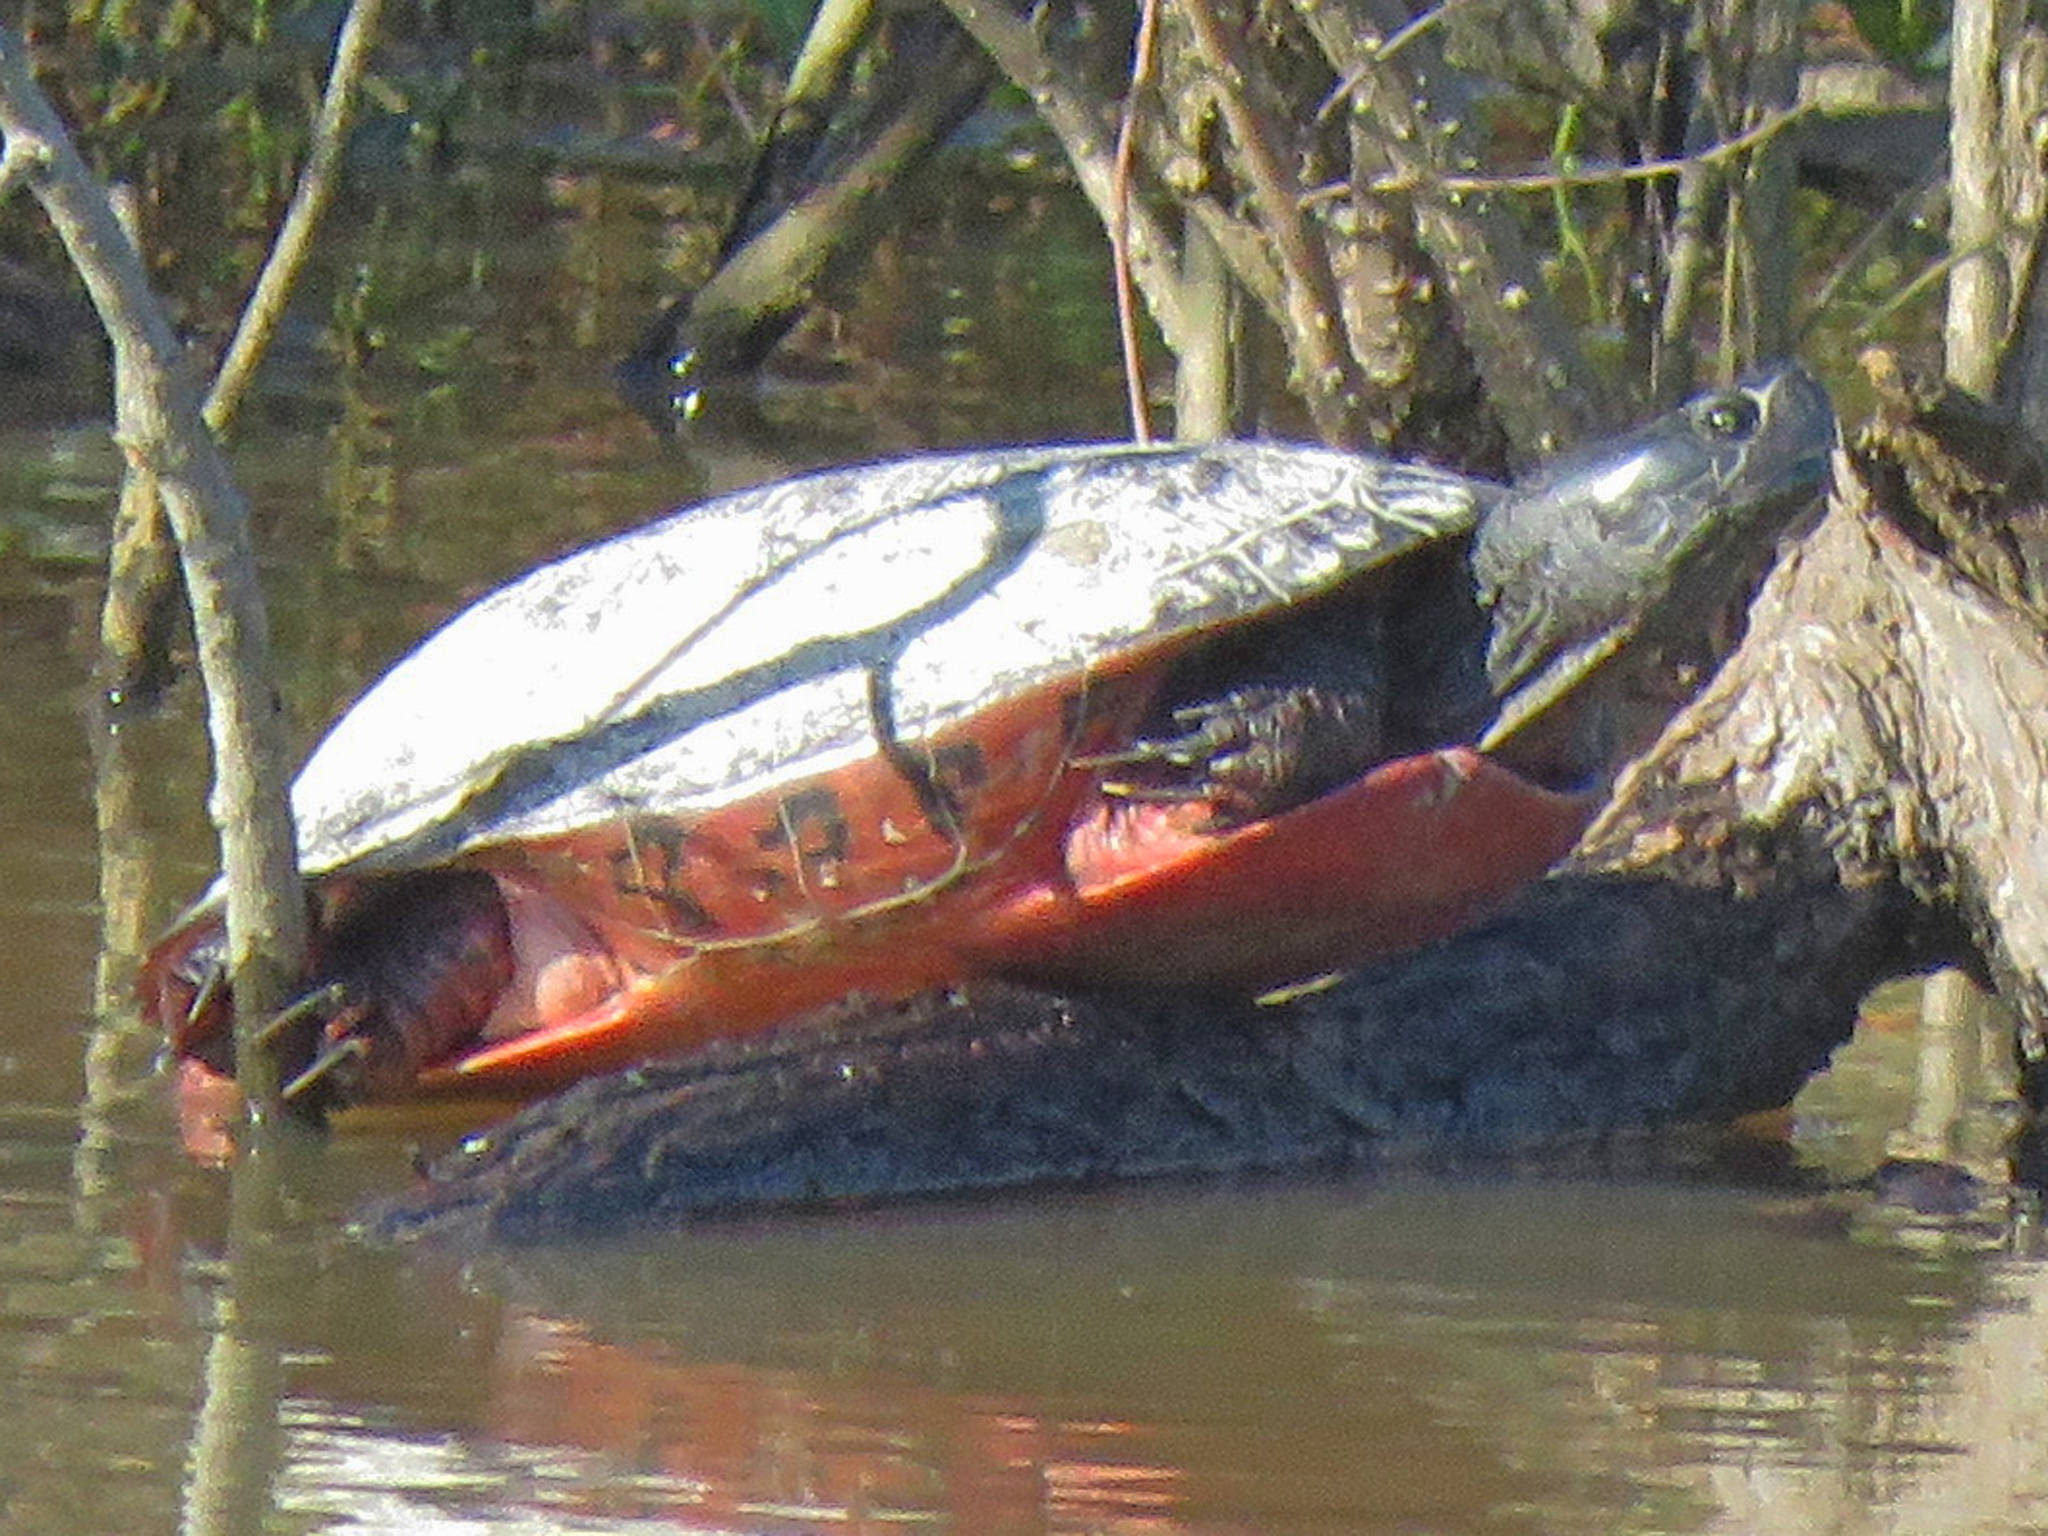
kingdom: Animalia
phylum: Chordata
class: Testudines
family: Emydidae
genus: Pseudemys
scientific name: Pseudemys rubriventris
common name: American red-bellied turtle
